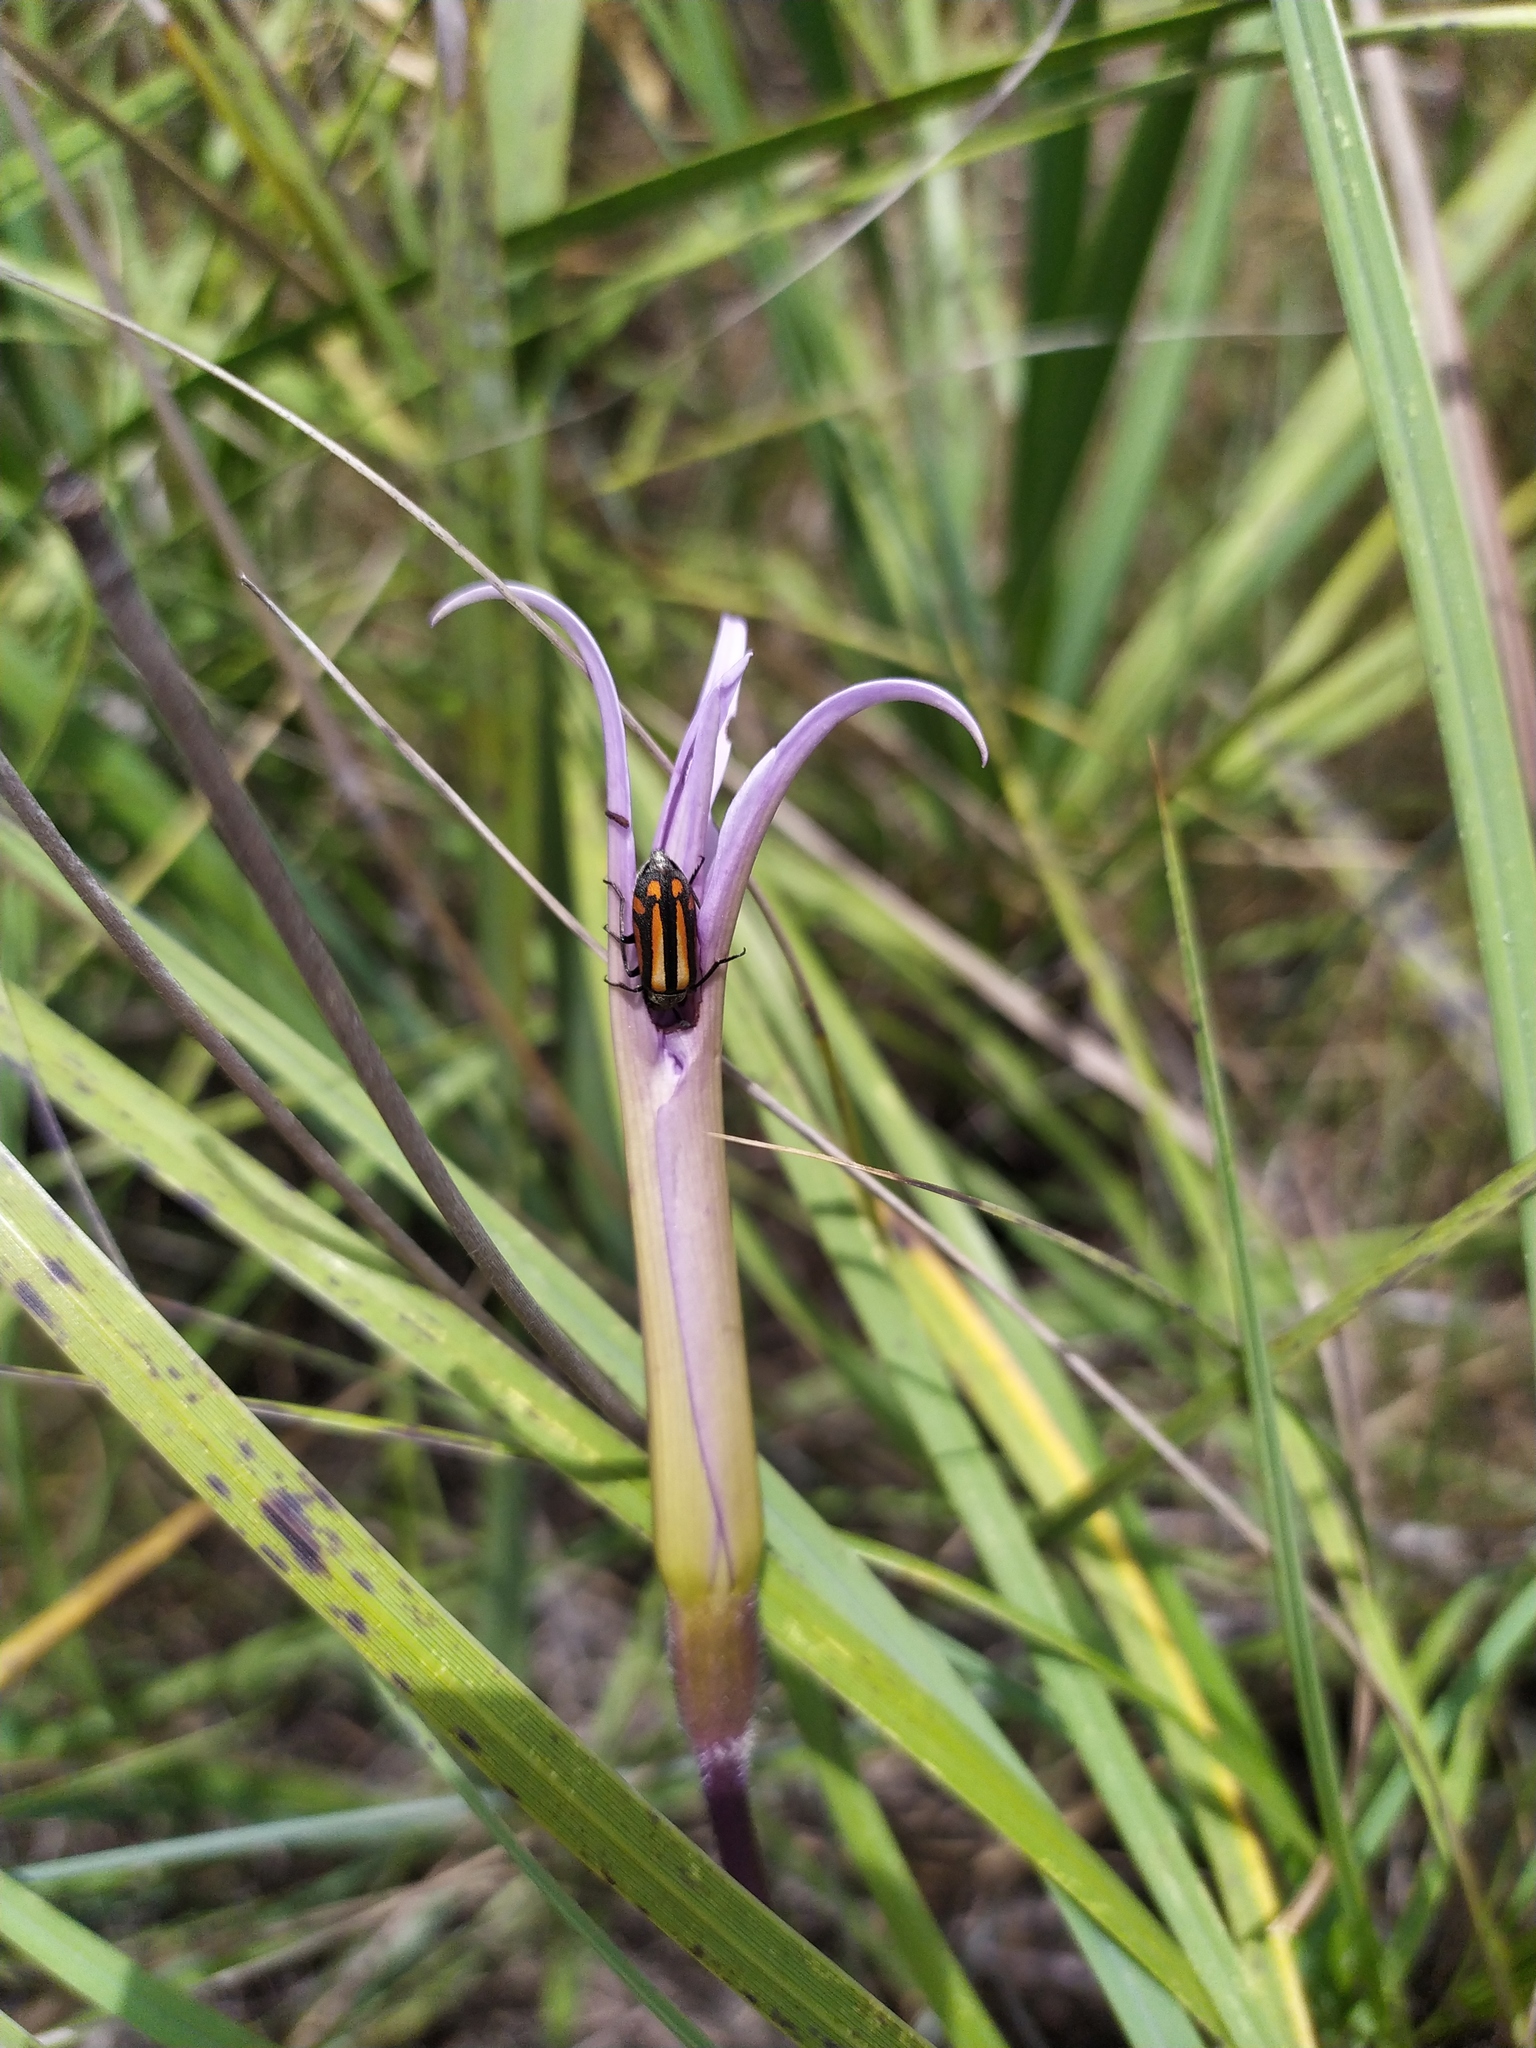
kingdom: Plantae
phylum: Tracheophyta
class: Liliopsida
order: Pandanales
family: Velloziaceae
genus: Xerophyta
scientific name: Xerophyta retinervis
